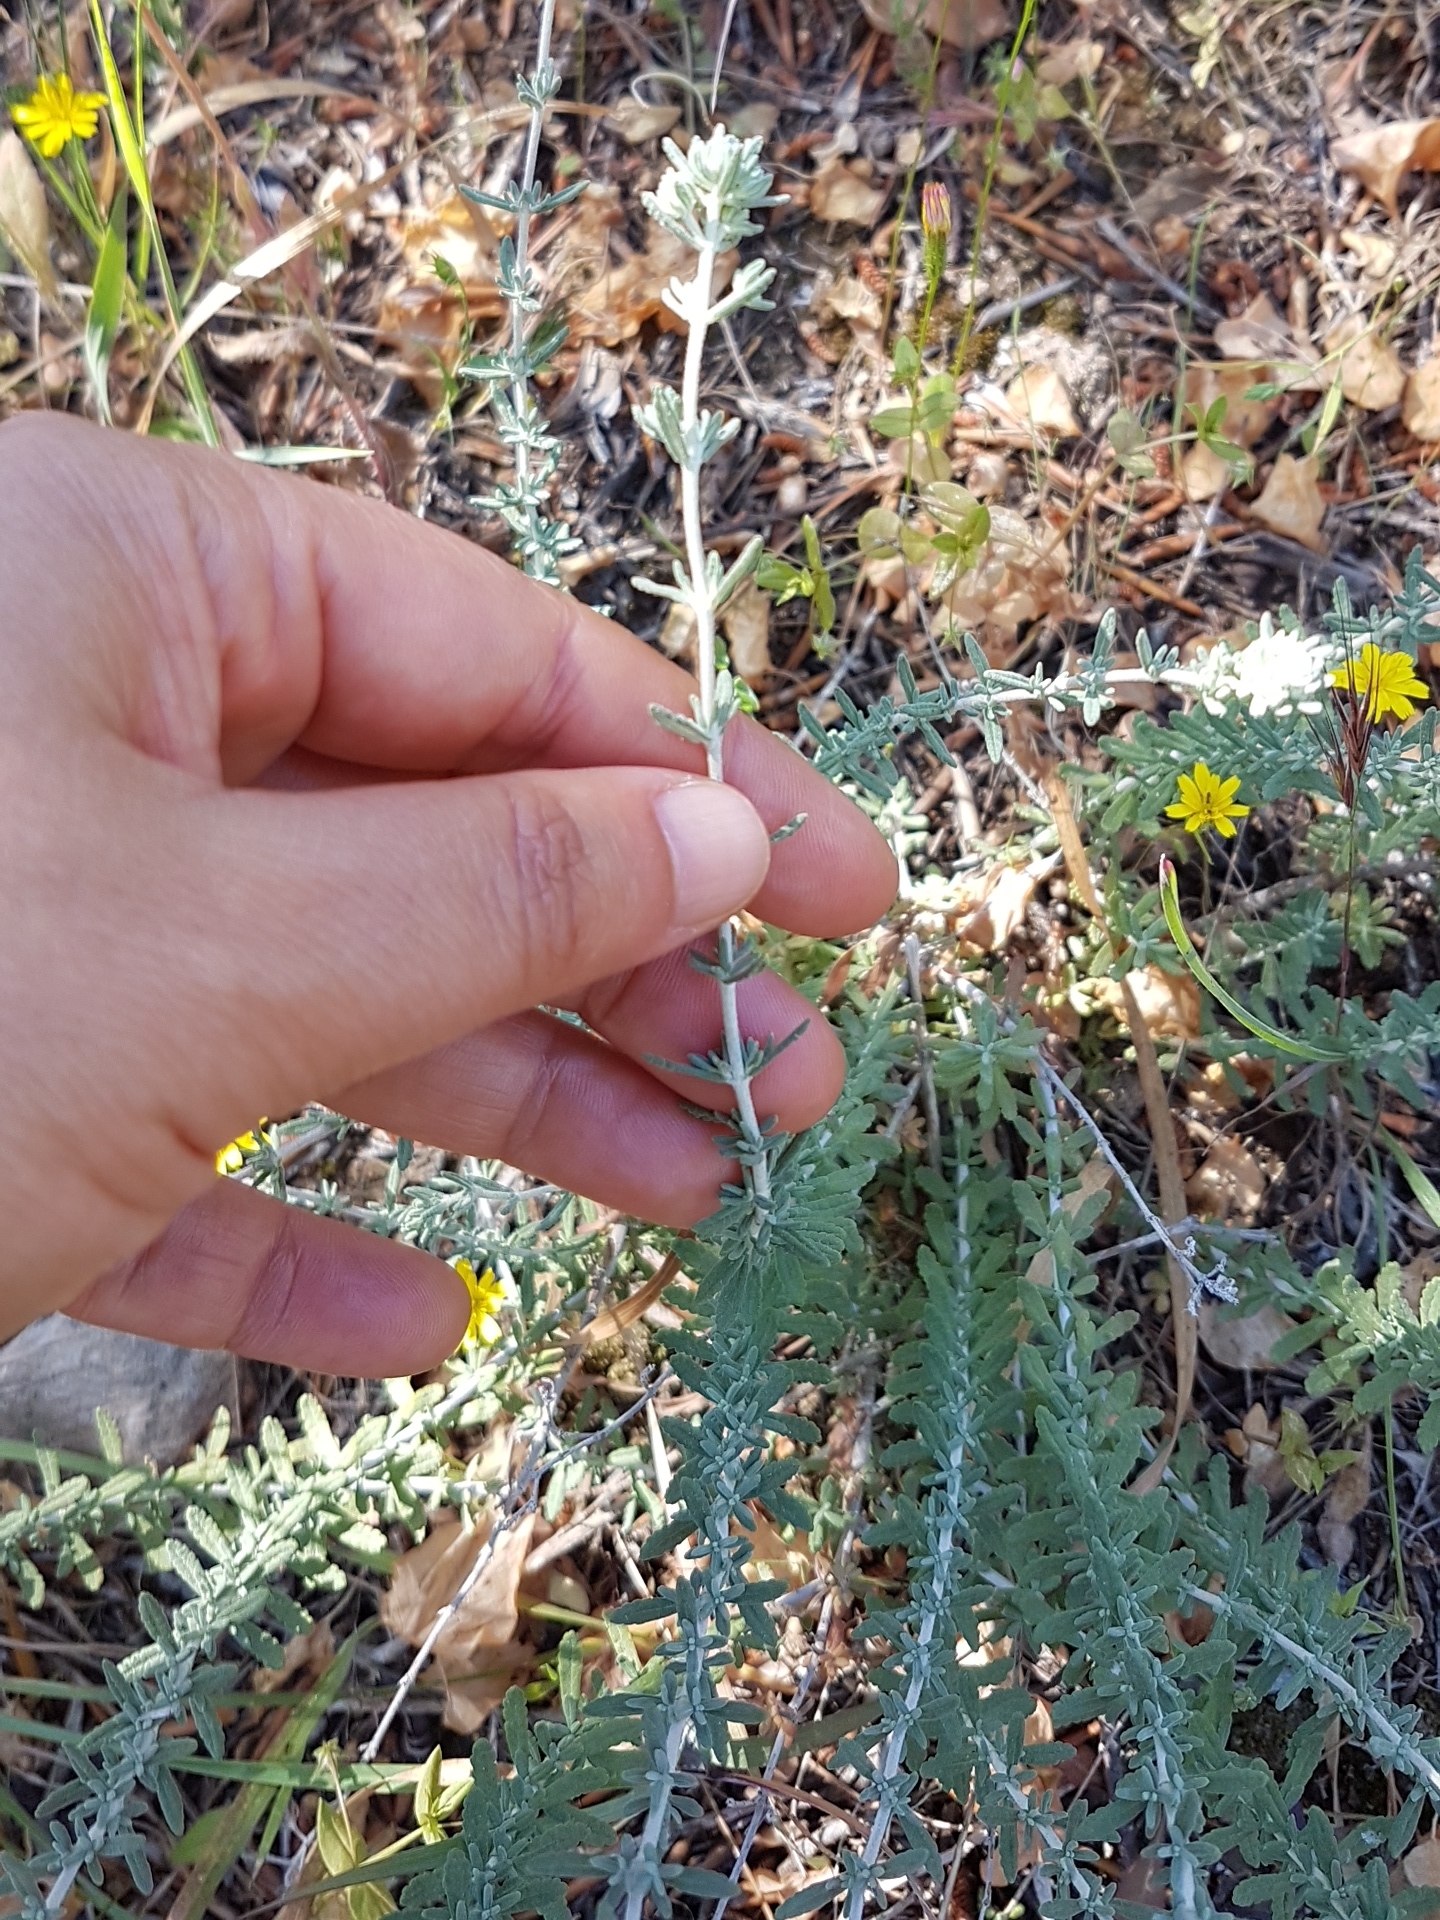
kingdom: Plantae
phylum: Tracheophyta
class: Magnoliopsida
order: Lamiales
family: Lamiaceae
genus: Teucrium
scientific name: Teucrium capitatum
